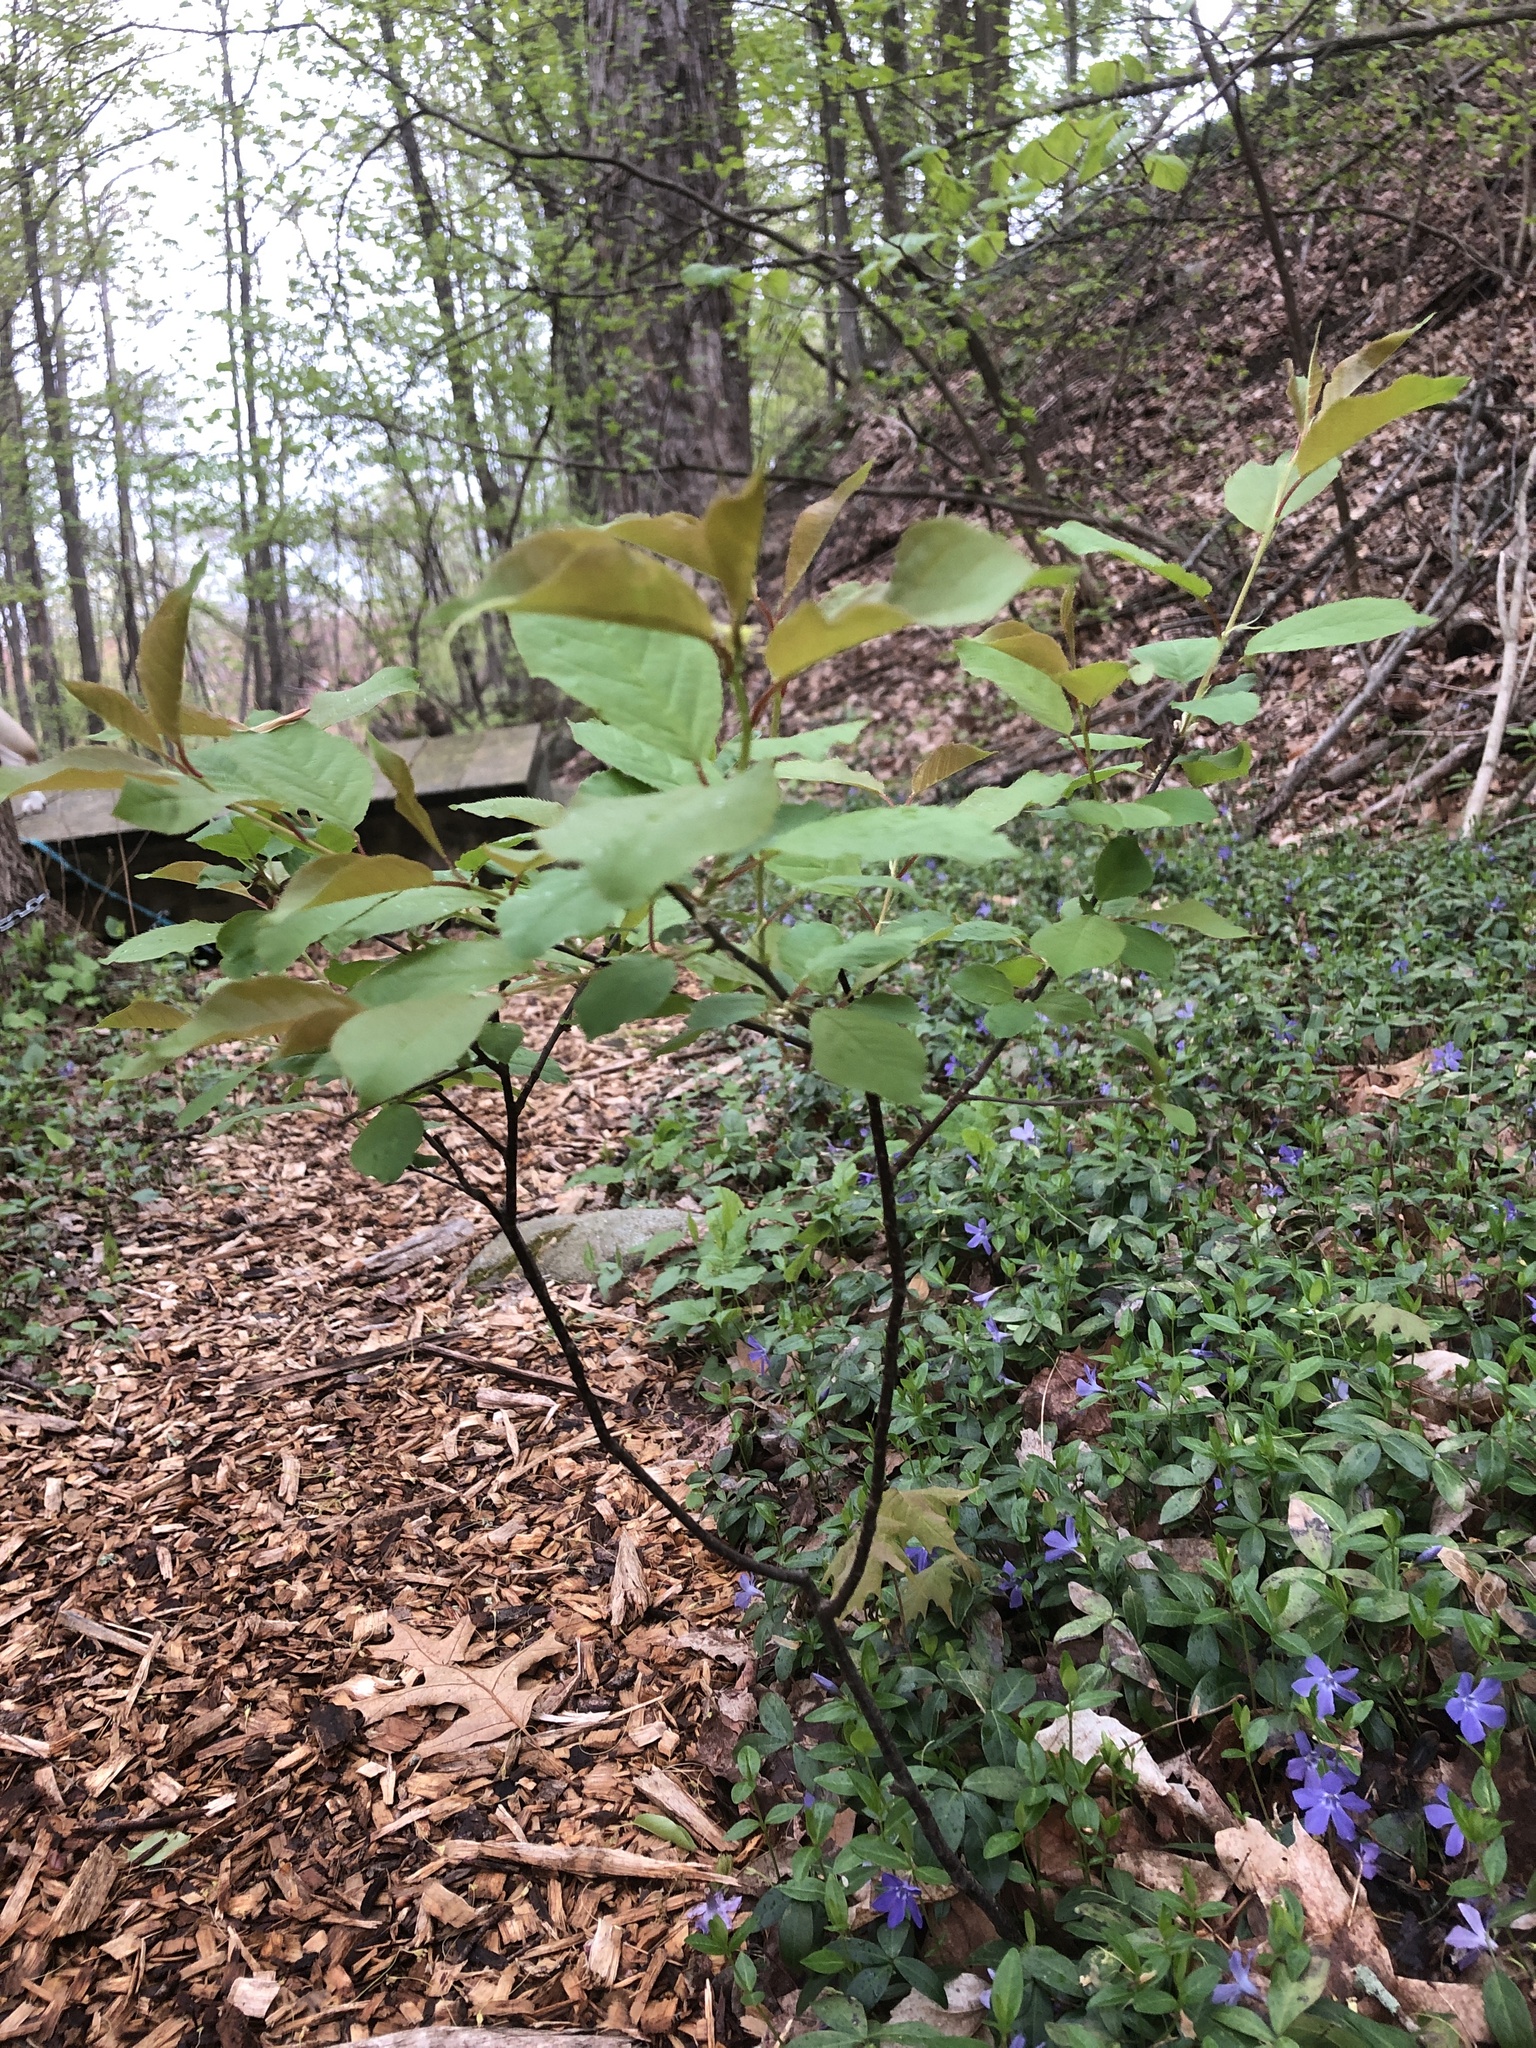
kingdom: Plantae
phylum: Tracheophyta
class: Magnoliopsida
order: Rosales
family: Rosaceae
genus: Prunus
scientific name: Prunus virginiana
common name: Chokecherry
